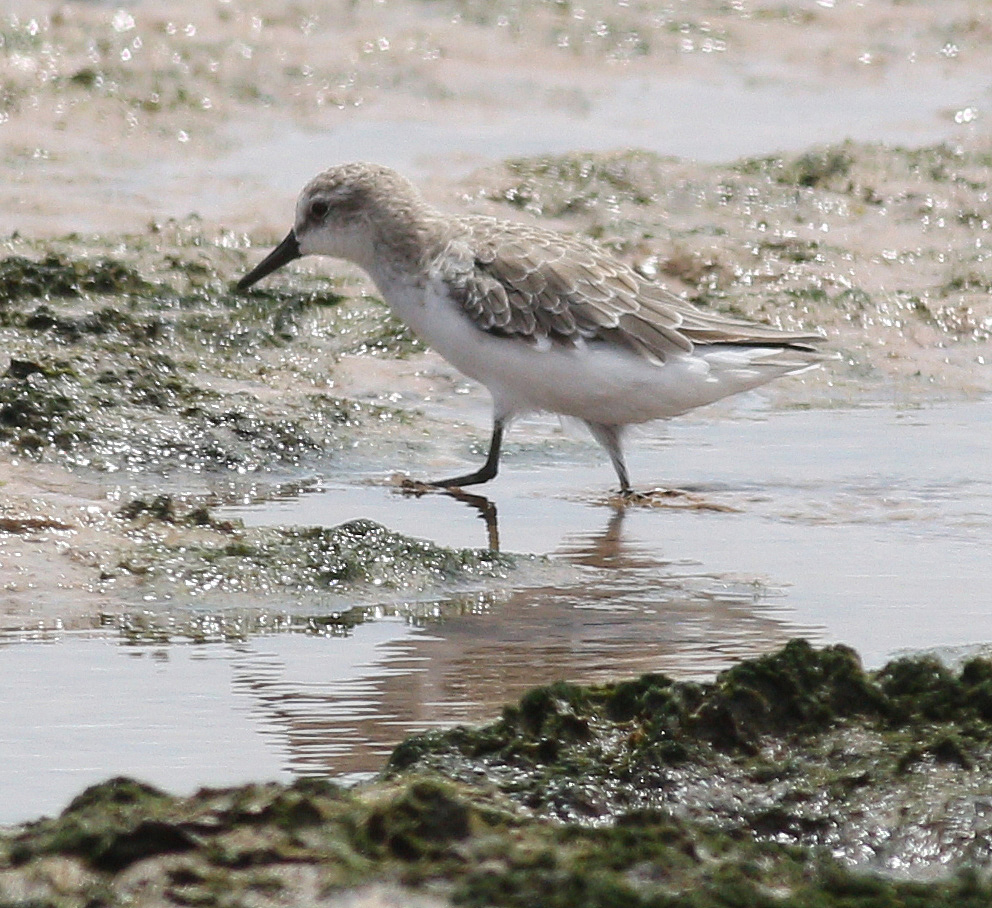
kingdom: Animalia
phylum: Chordata
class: Aves
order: Charadriiformes
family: Scolopacidae
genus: Calidris
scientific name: Calidris pusilla
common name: Semipalmated sandpiper
